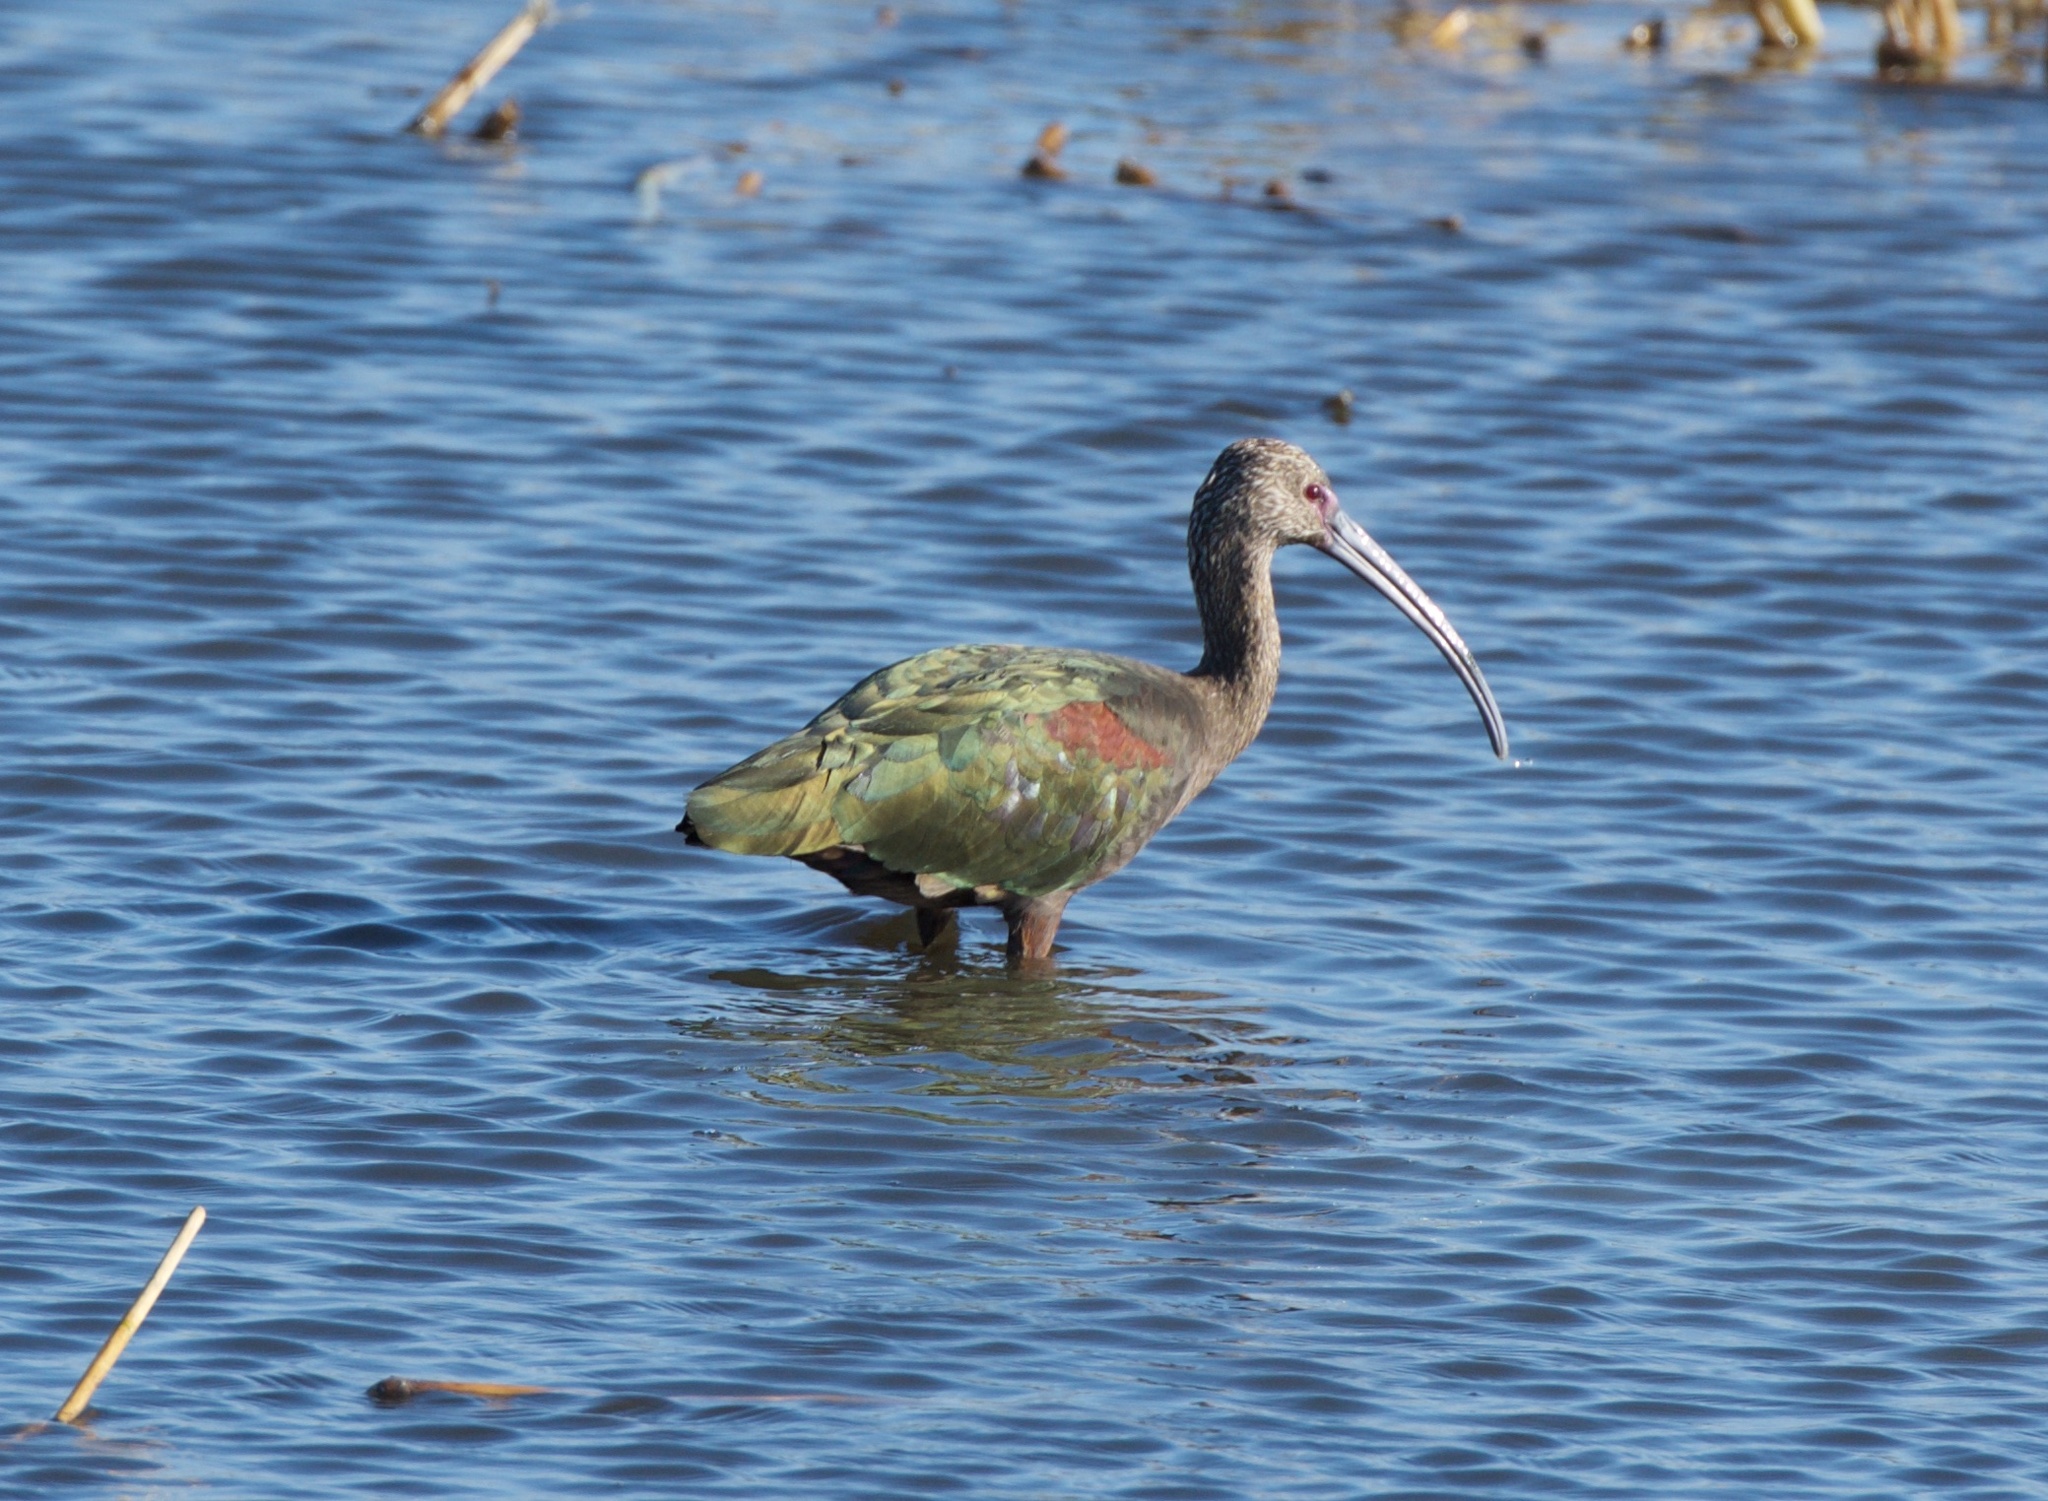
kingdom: Animalia
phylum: Chordata
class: Aves
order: Pelecaniformes
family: Threskiornithidae
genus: Plegadis
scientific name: Plegadis chihi
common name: White-faced ibis
